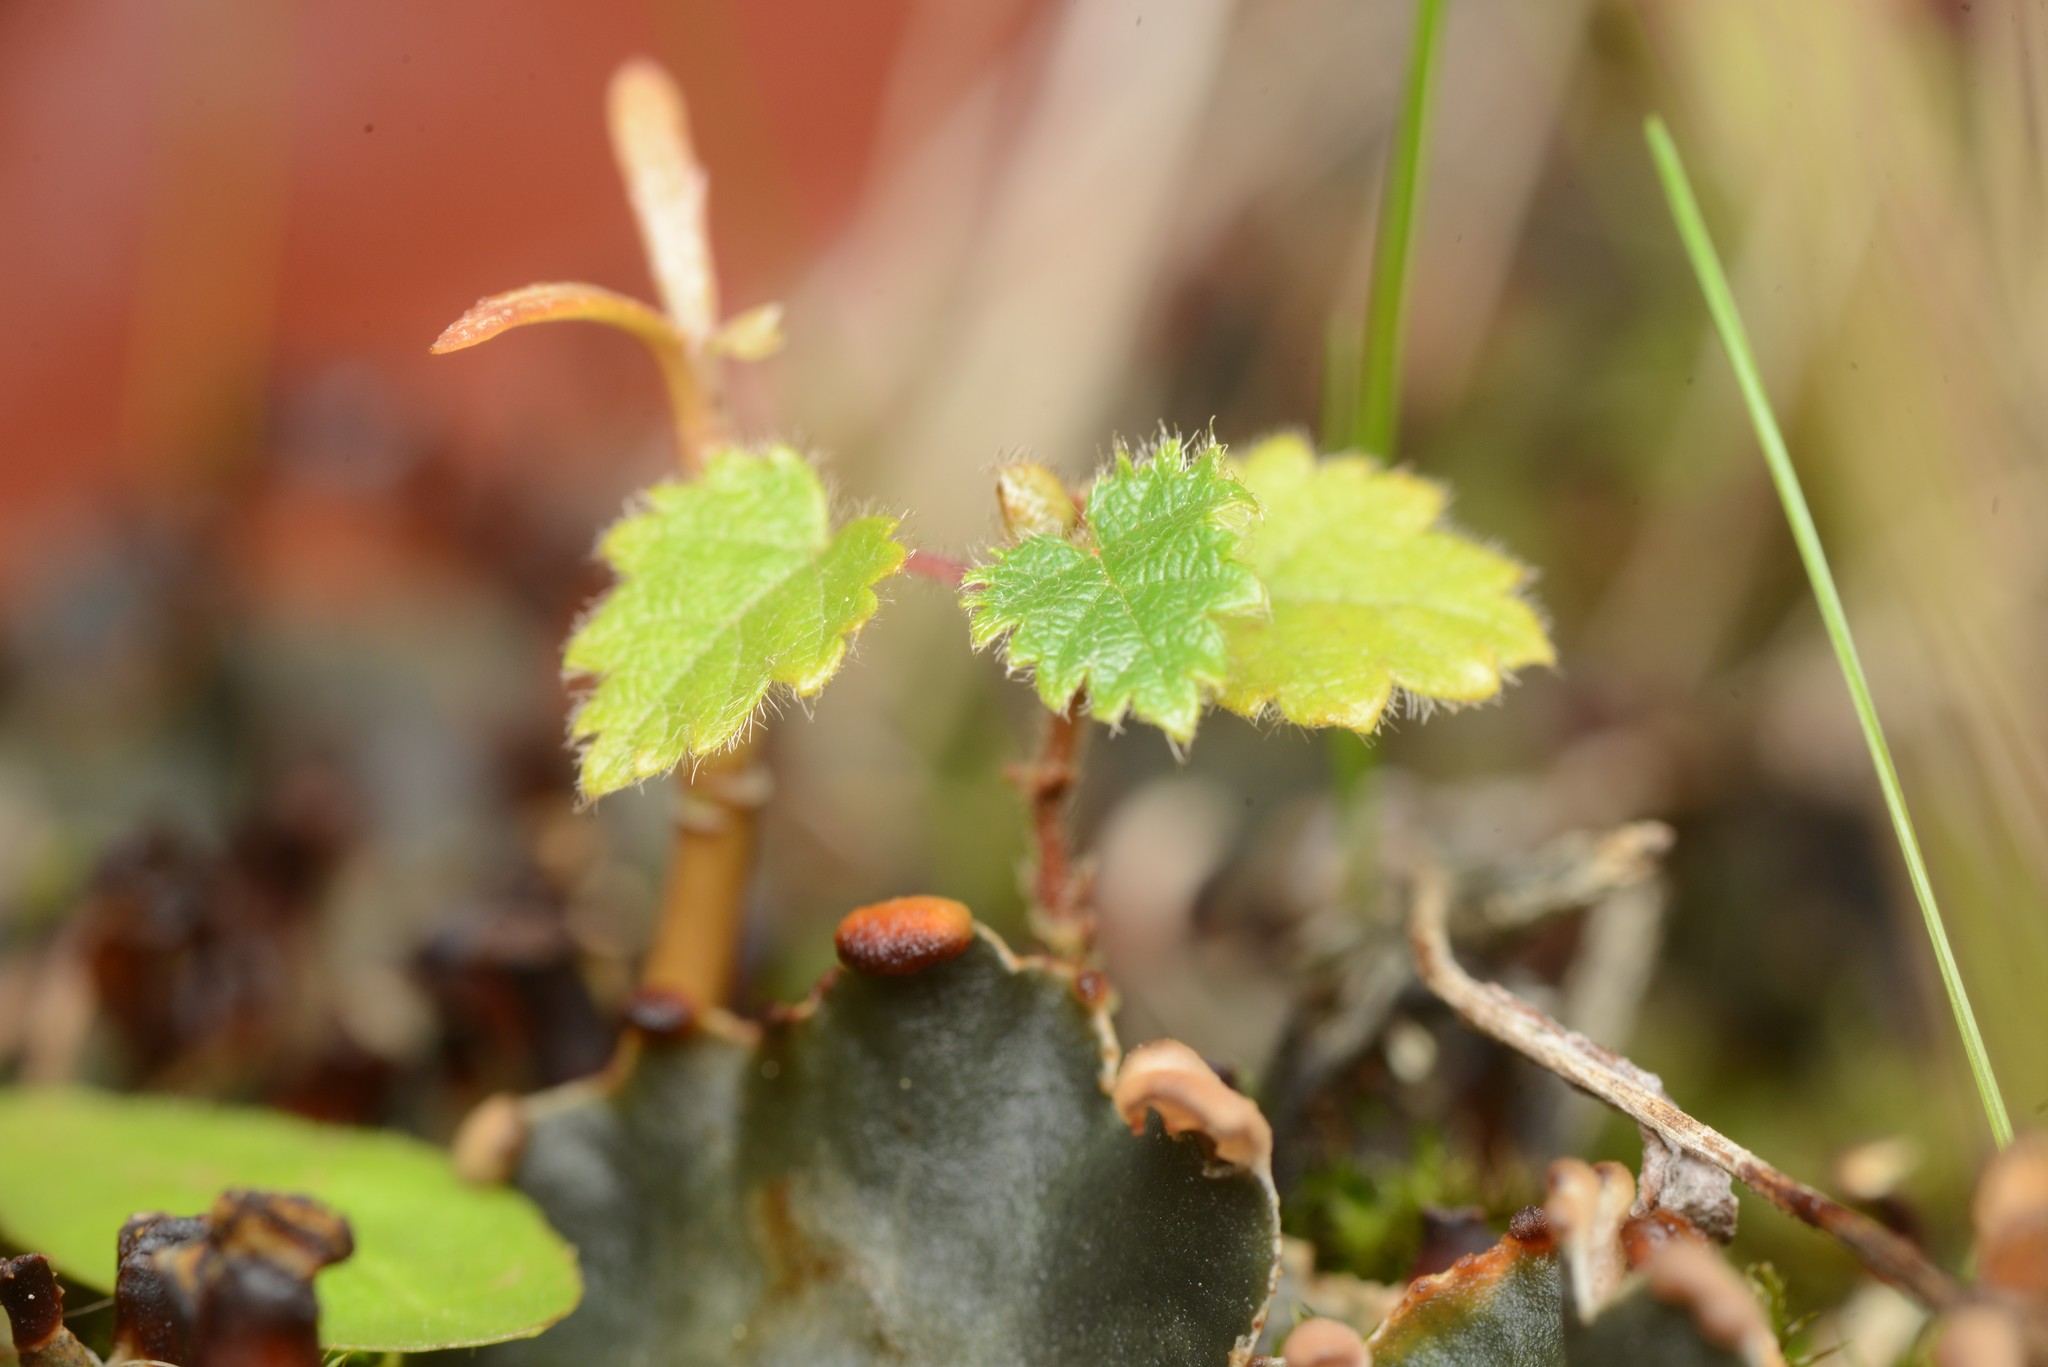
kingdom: Plantae
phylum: Tracheophyta
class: Magnoliopsida
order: Fagales
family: Betulaceae
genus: Betula
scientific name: Betula pendula
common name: Silver birch
